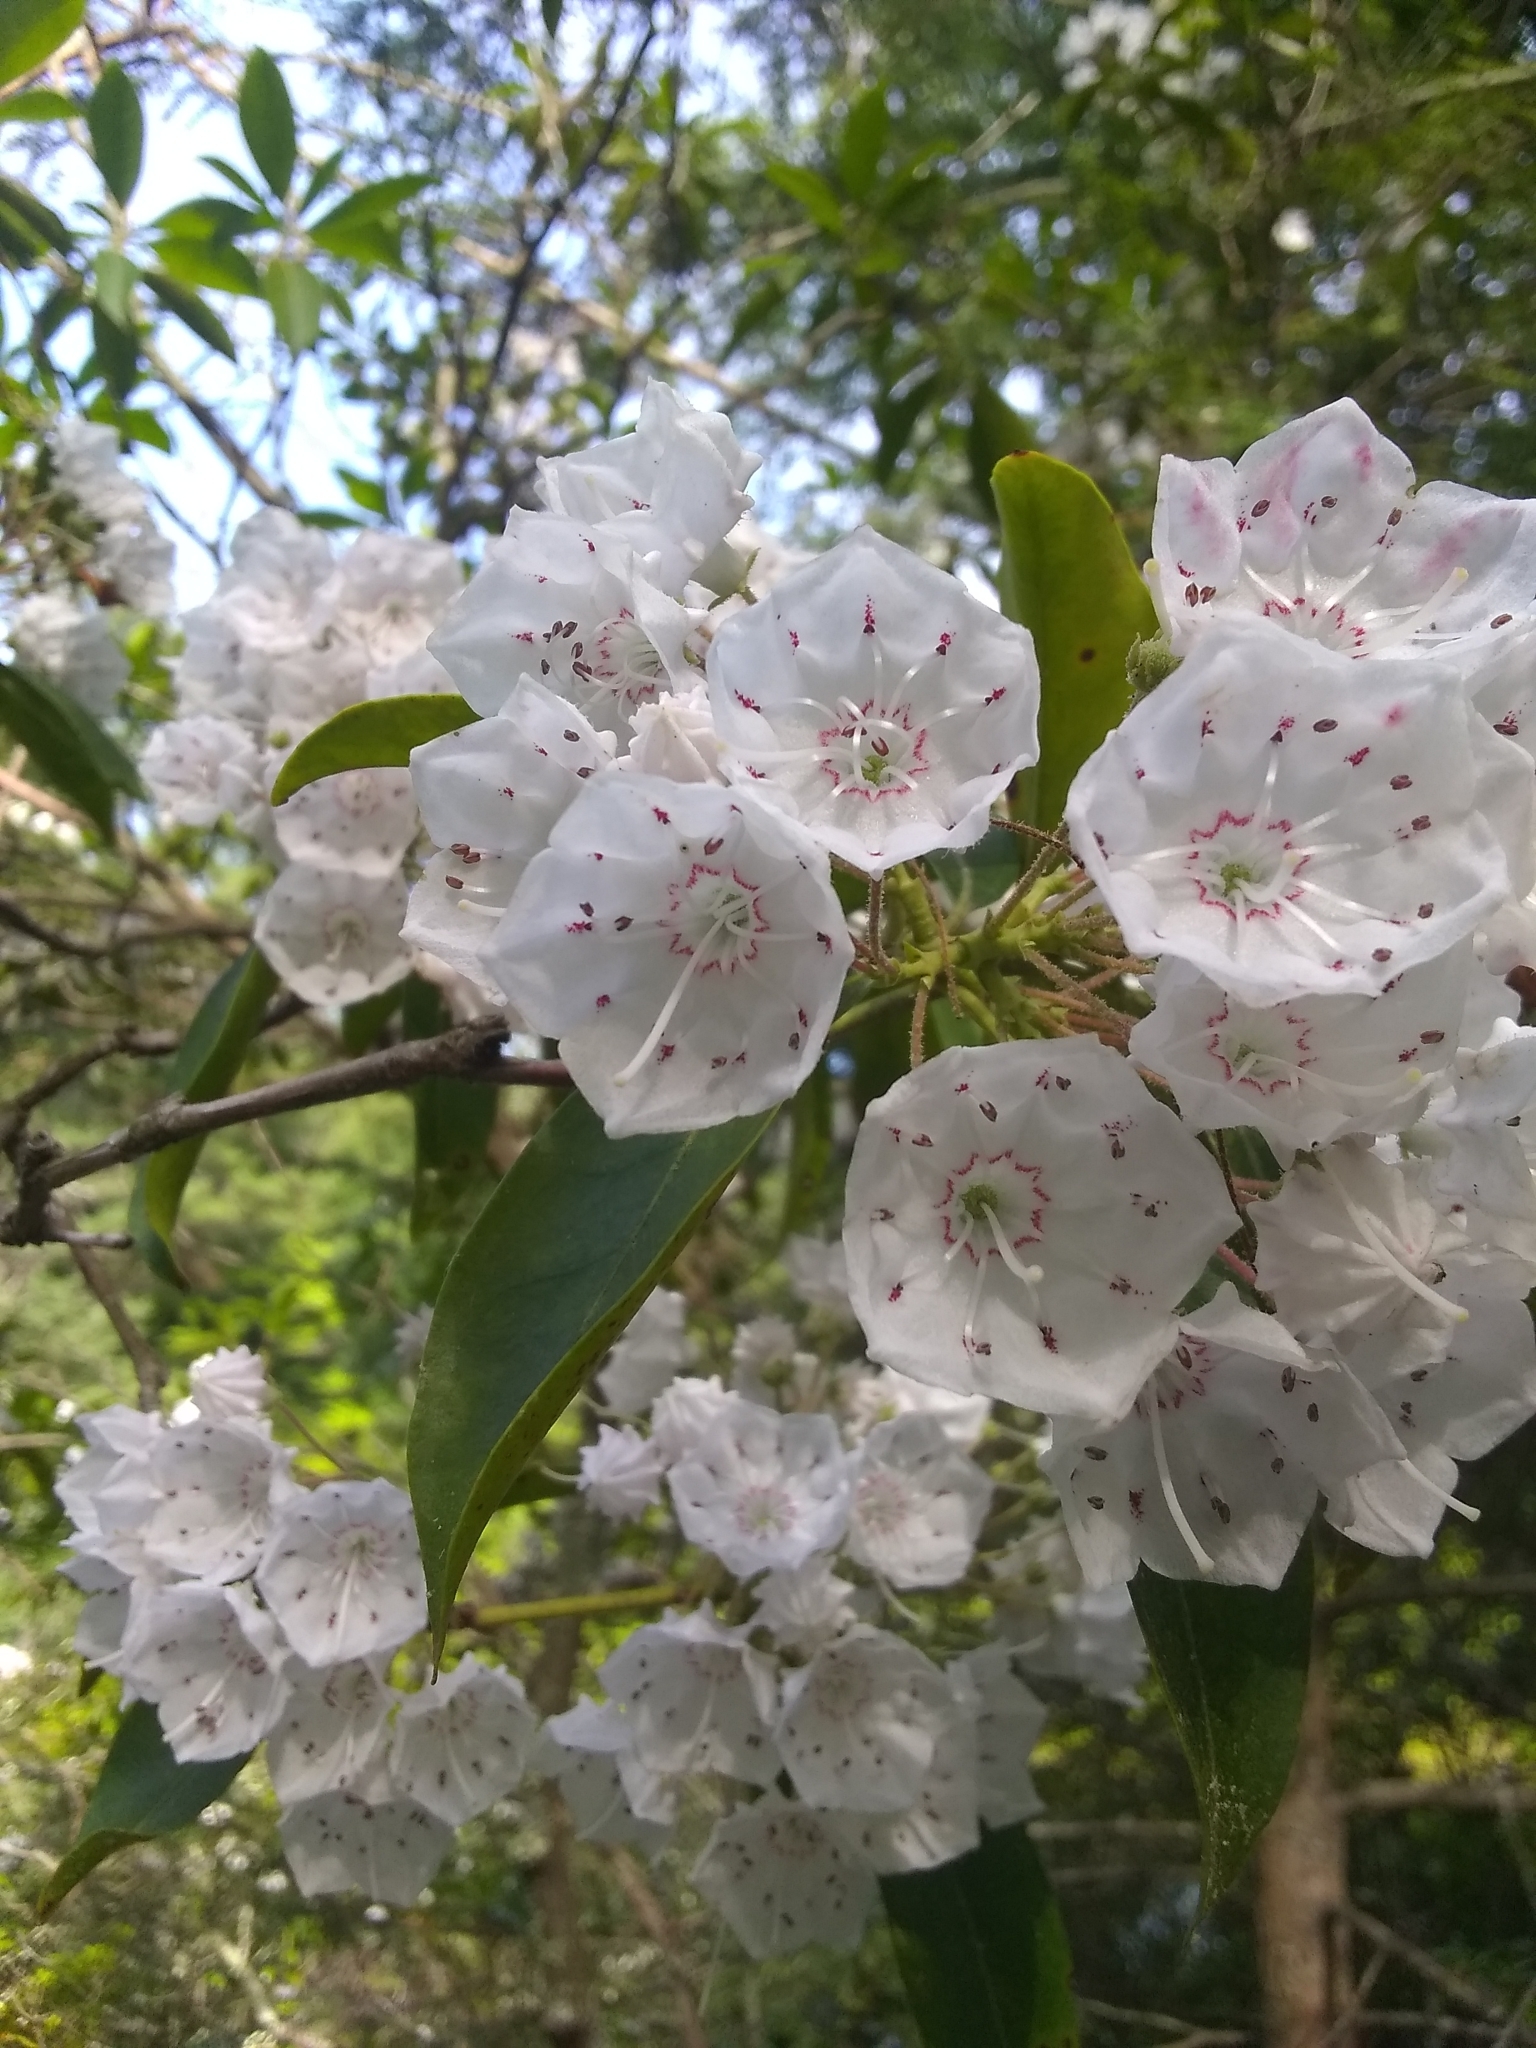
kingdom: Plantae
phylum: Tracheophyta
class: Magnoliopsida
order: Ericales
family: Ericaceae
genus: Kalmia
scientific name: Kalmia latifolia
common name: Mountain-laurel
